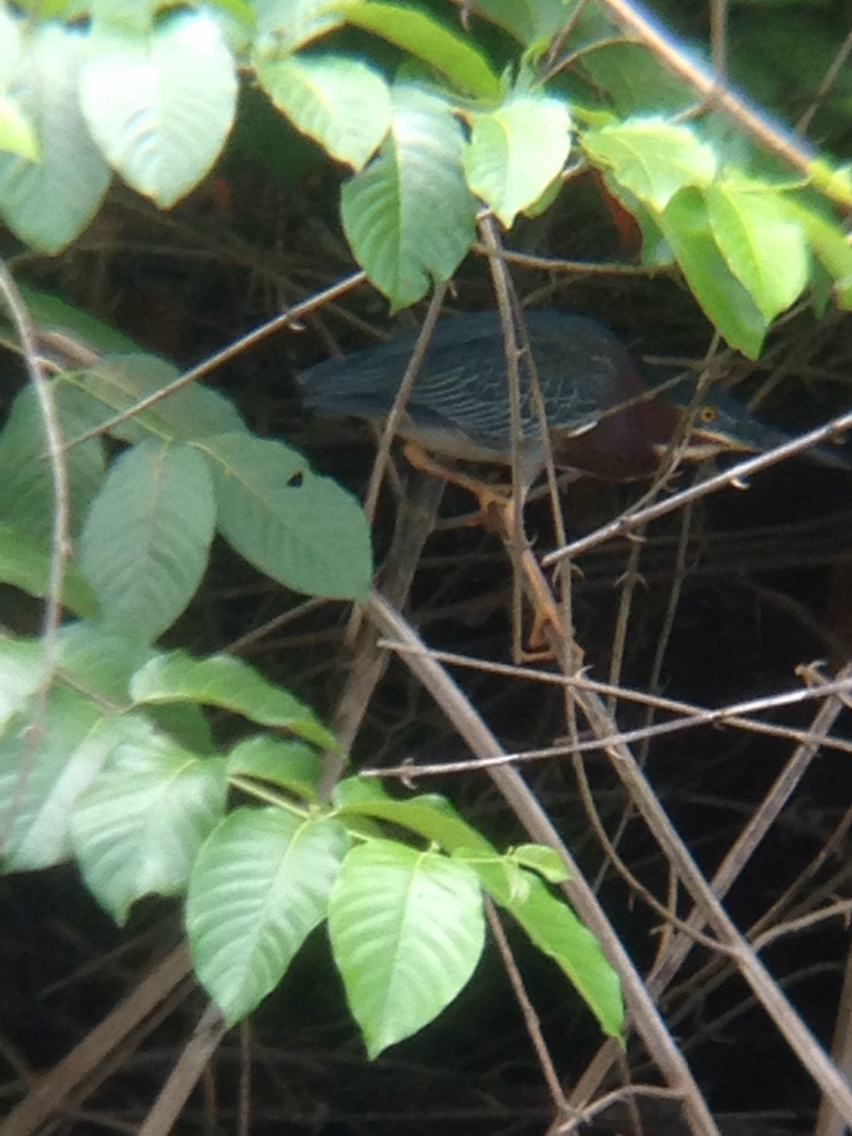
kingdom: Animalia
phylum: Chordata
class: Aves
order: Pelecaniformes
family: Ardeidae
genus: Butorides
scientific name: Butorides virescens
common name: Green heron
